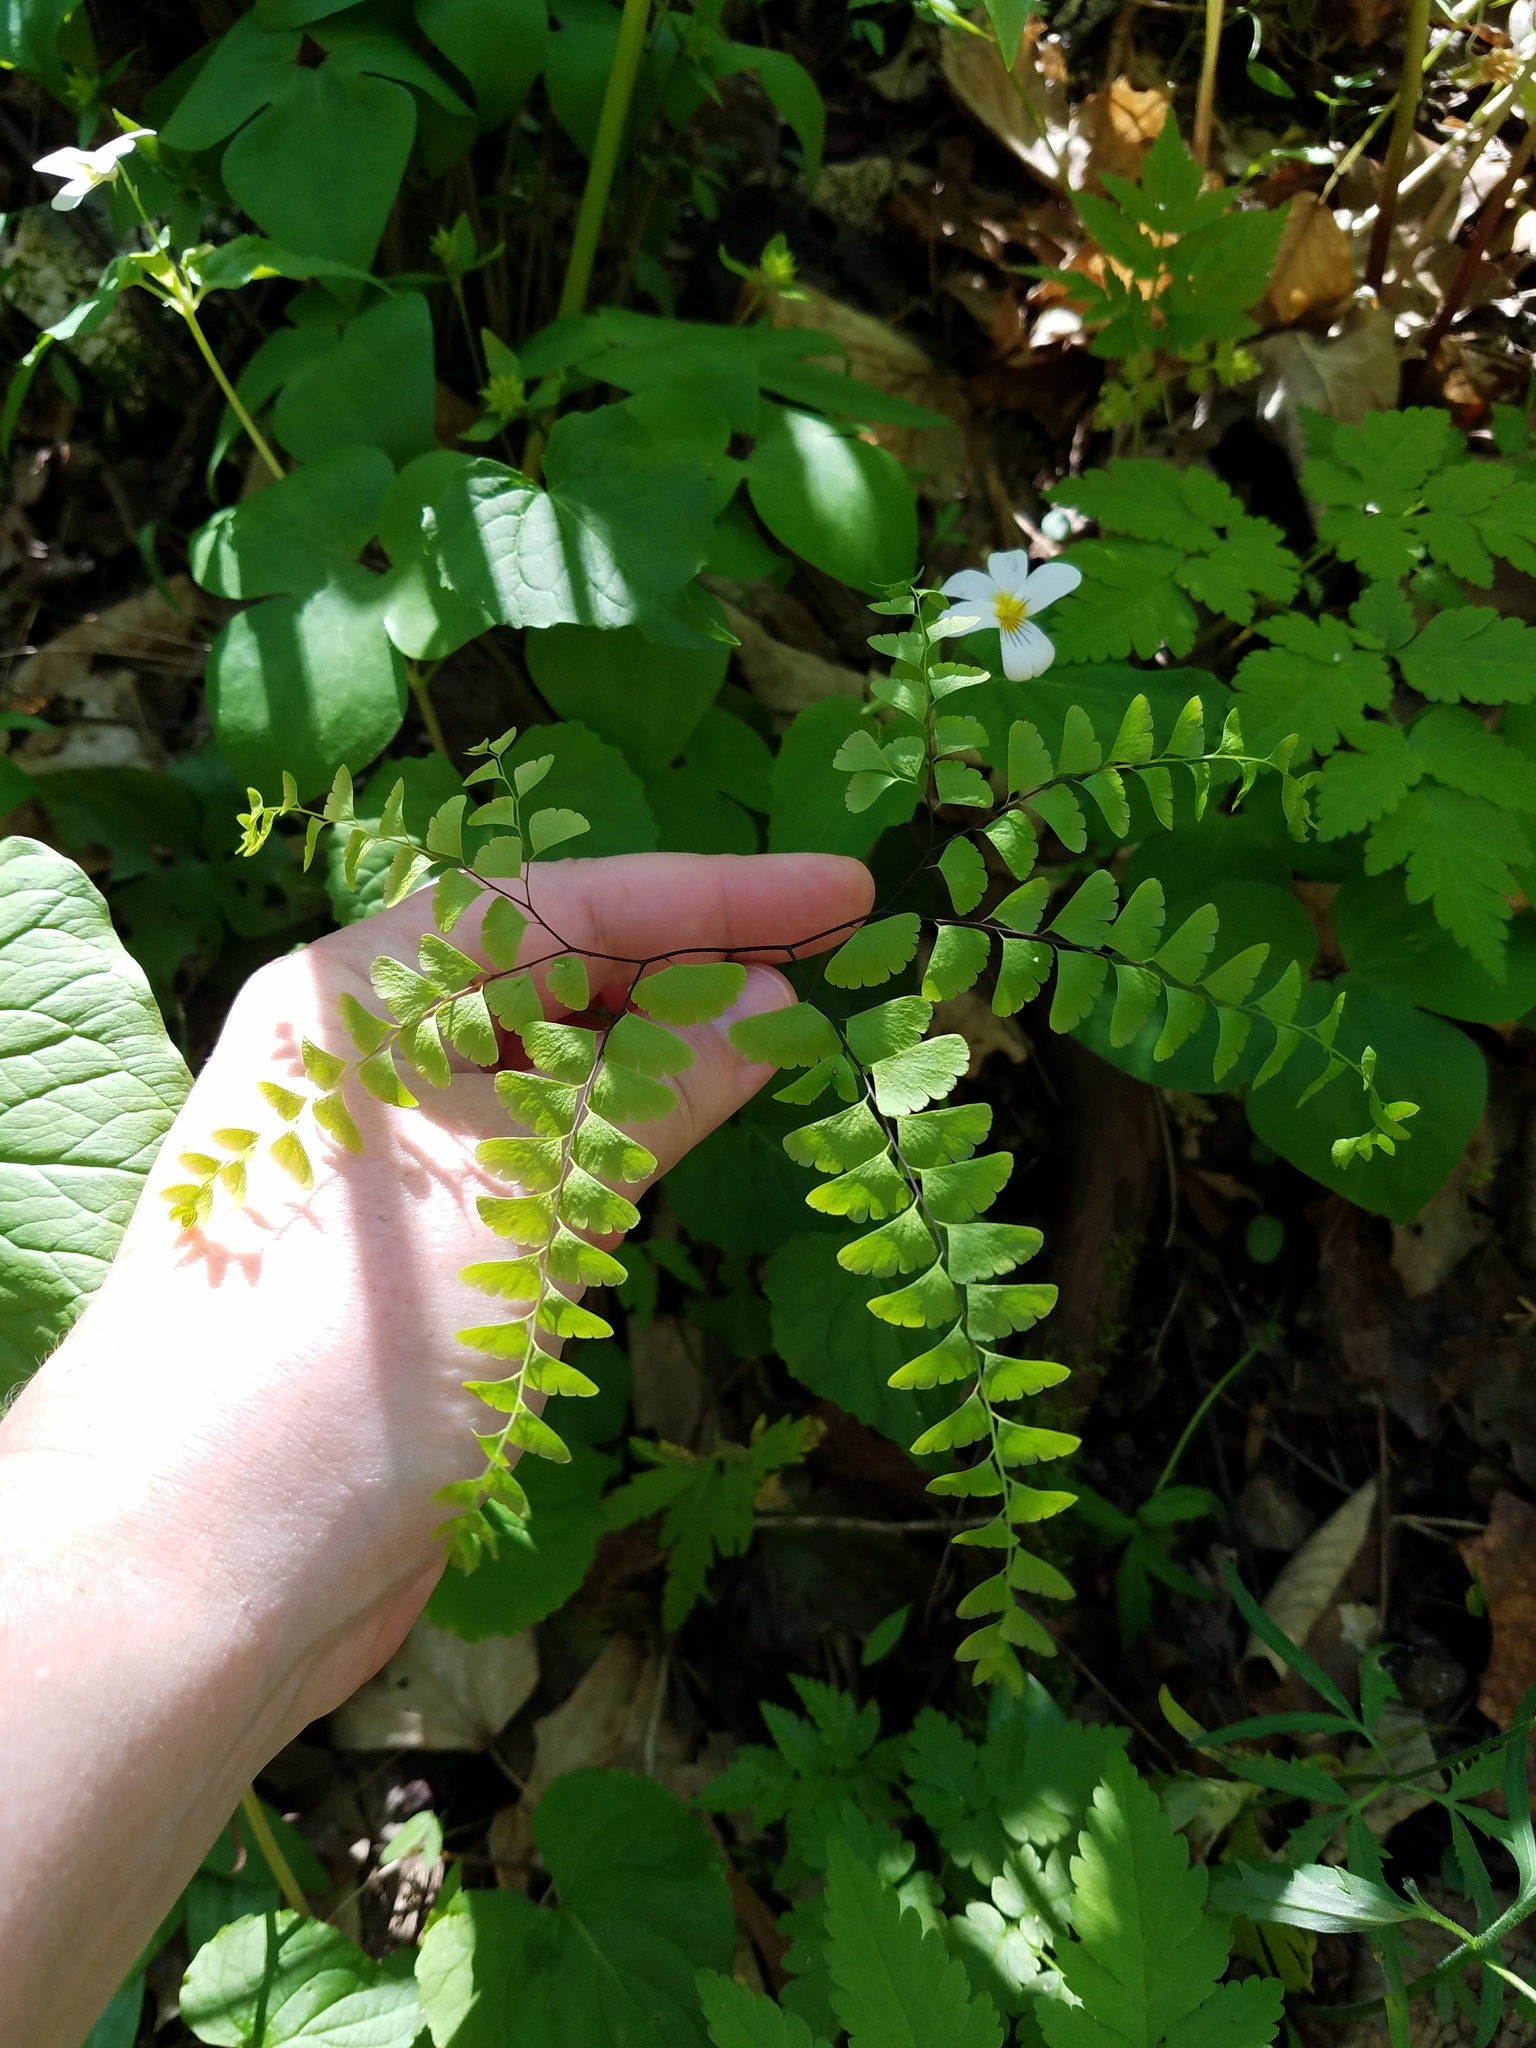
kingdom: Plantae
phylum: Tracheophyta
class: Polypodiopsida
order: Polypodiales
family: Pteridaceae
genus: Adiantum
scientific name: Adiantum pedatum
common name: Five-finger fern
